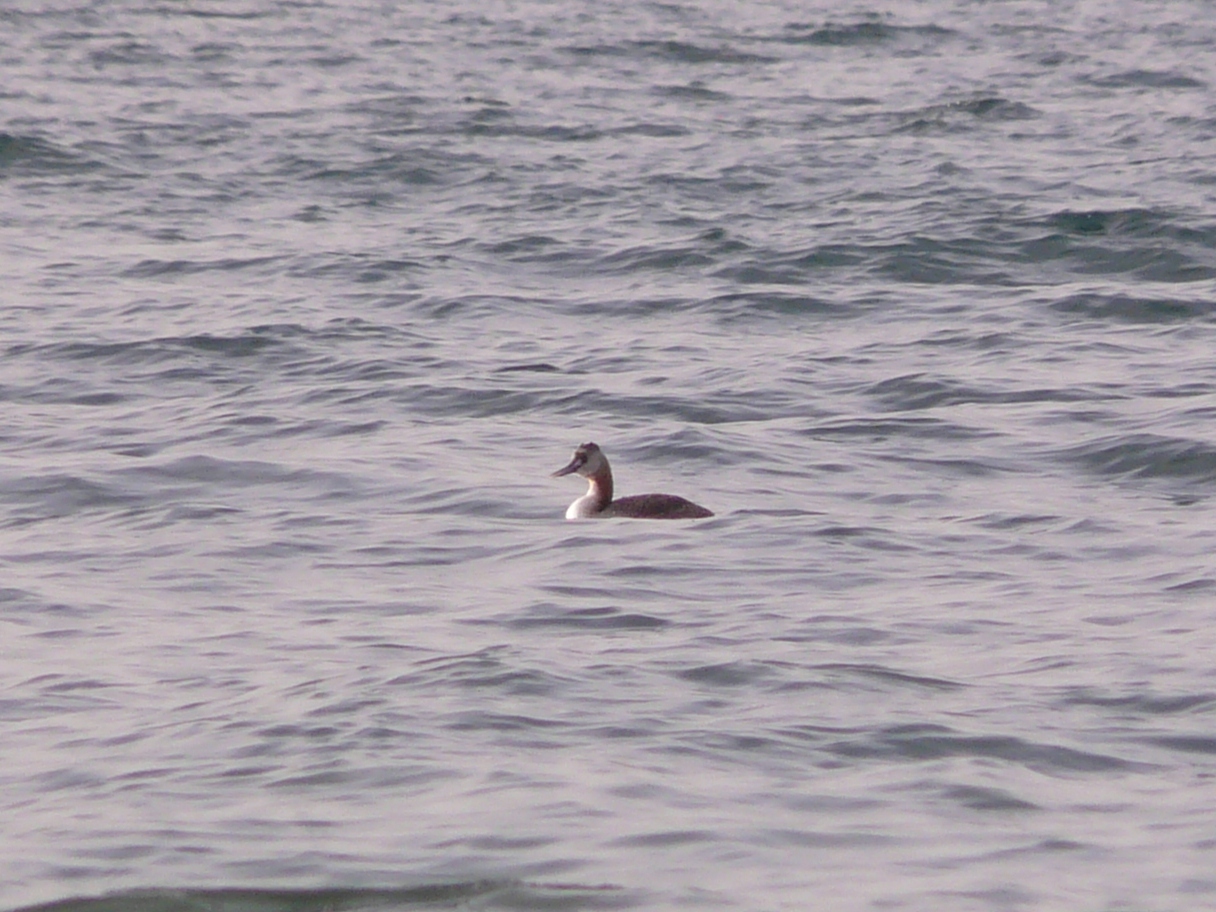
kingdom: Animalia
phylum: Chordata
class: Aves
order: Podicipediformes
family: Podicipedidae
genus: Podiceps
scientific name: Podiceps major
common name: Great grebe
